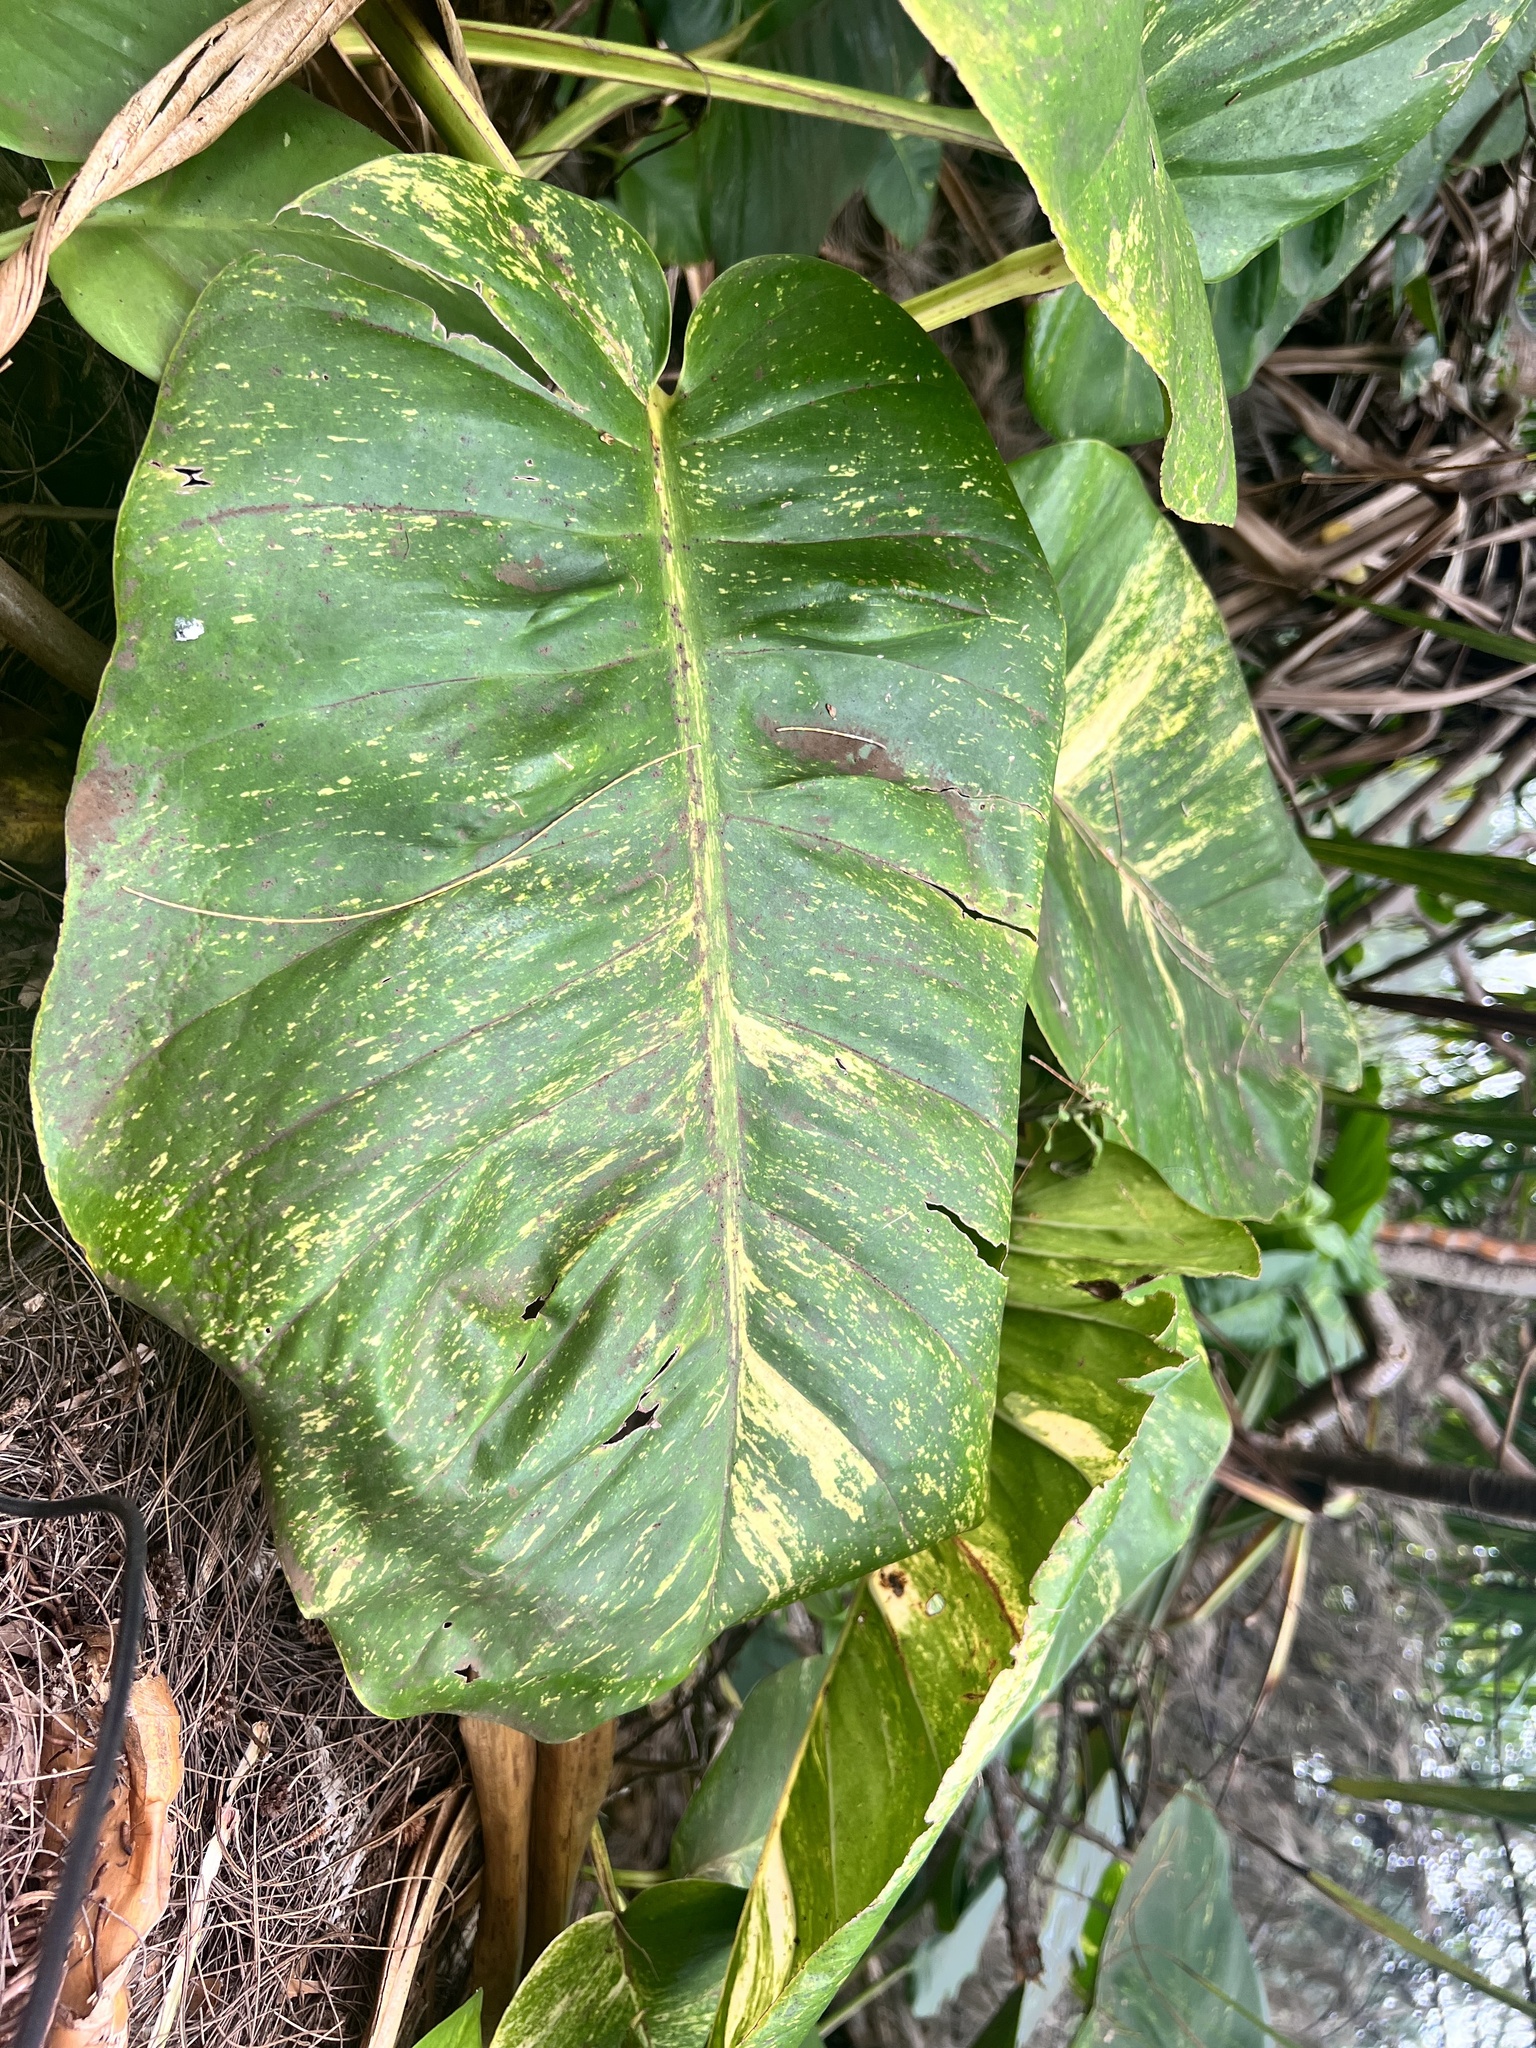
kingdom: Plantae
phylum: Tracheophyta
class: Liliopsida
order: Alismatales
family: Araceae
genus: Epipremnum
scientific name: Epipremnum aureum
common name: Golden hunter's-robe
